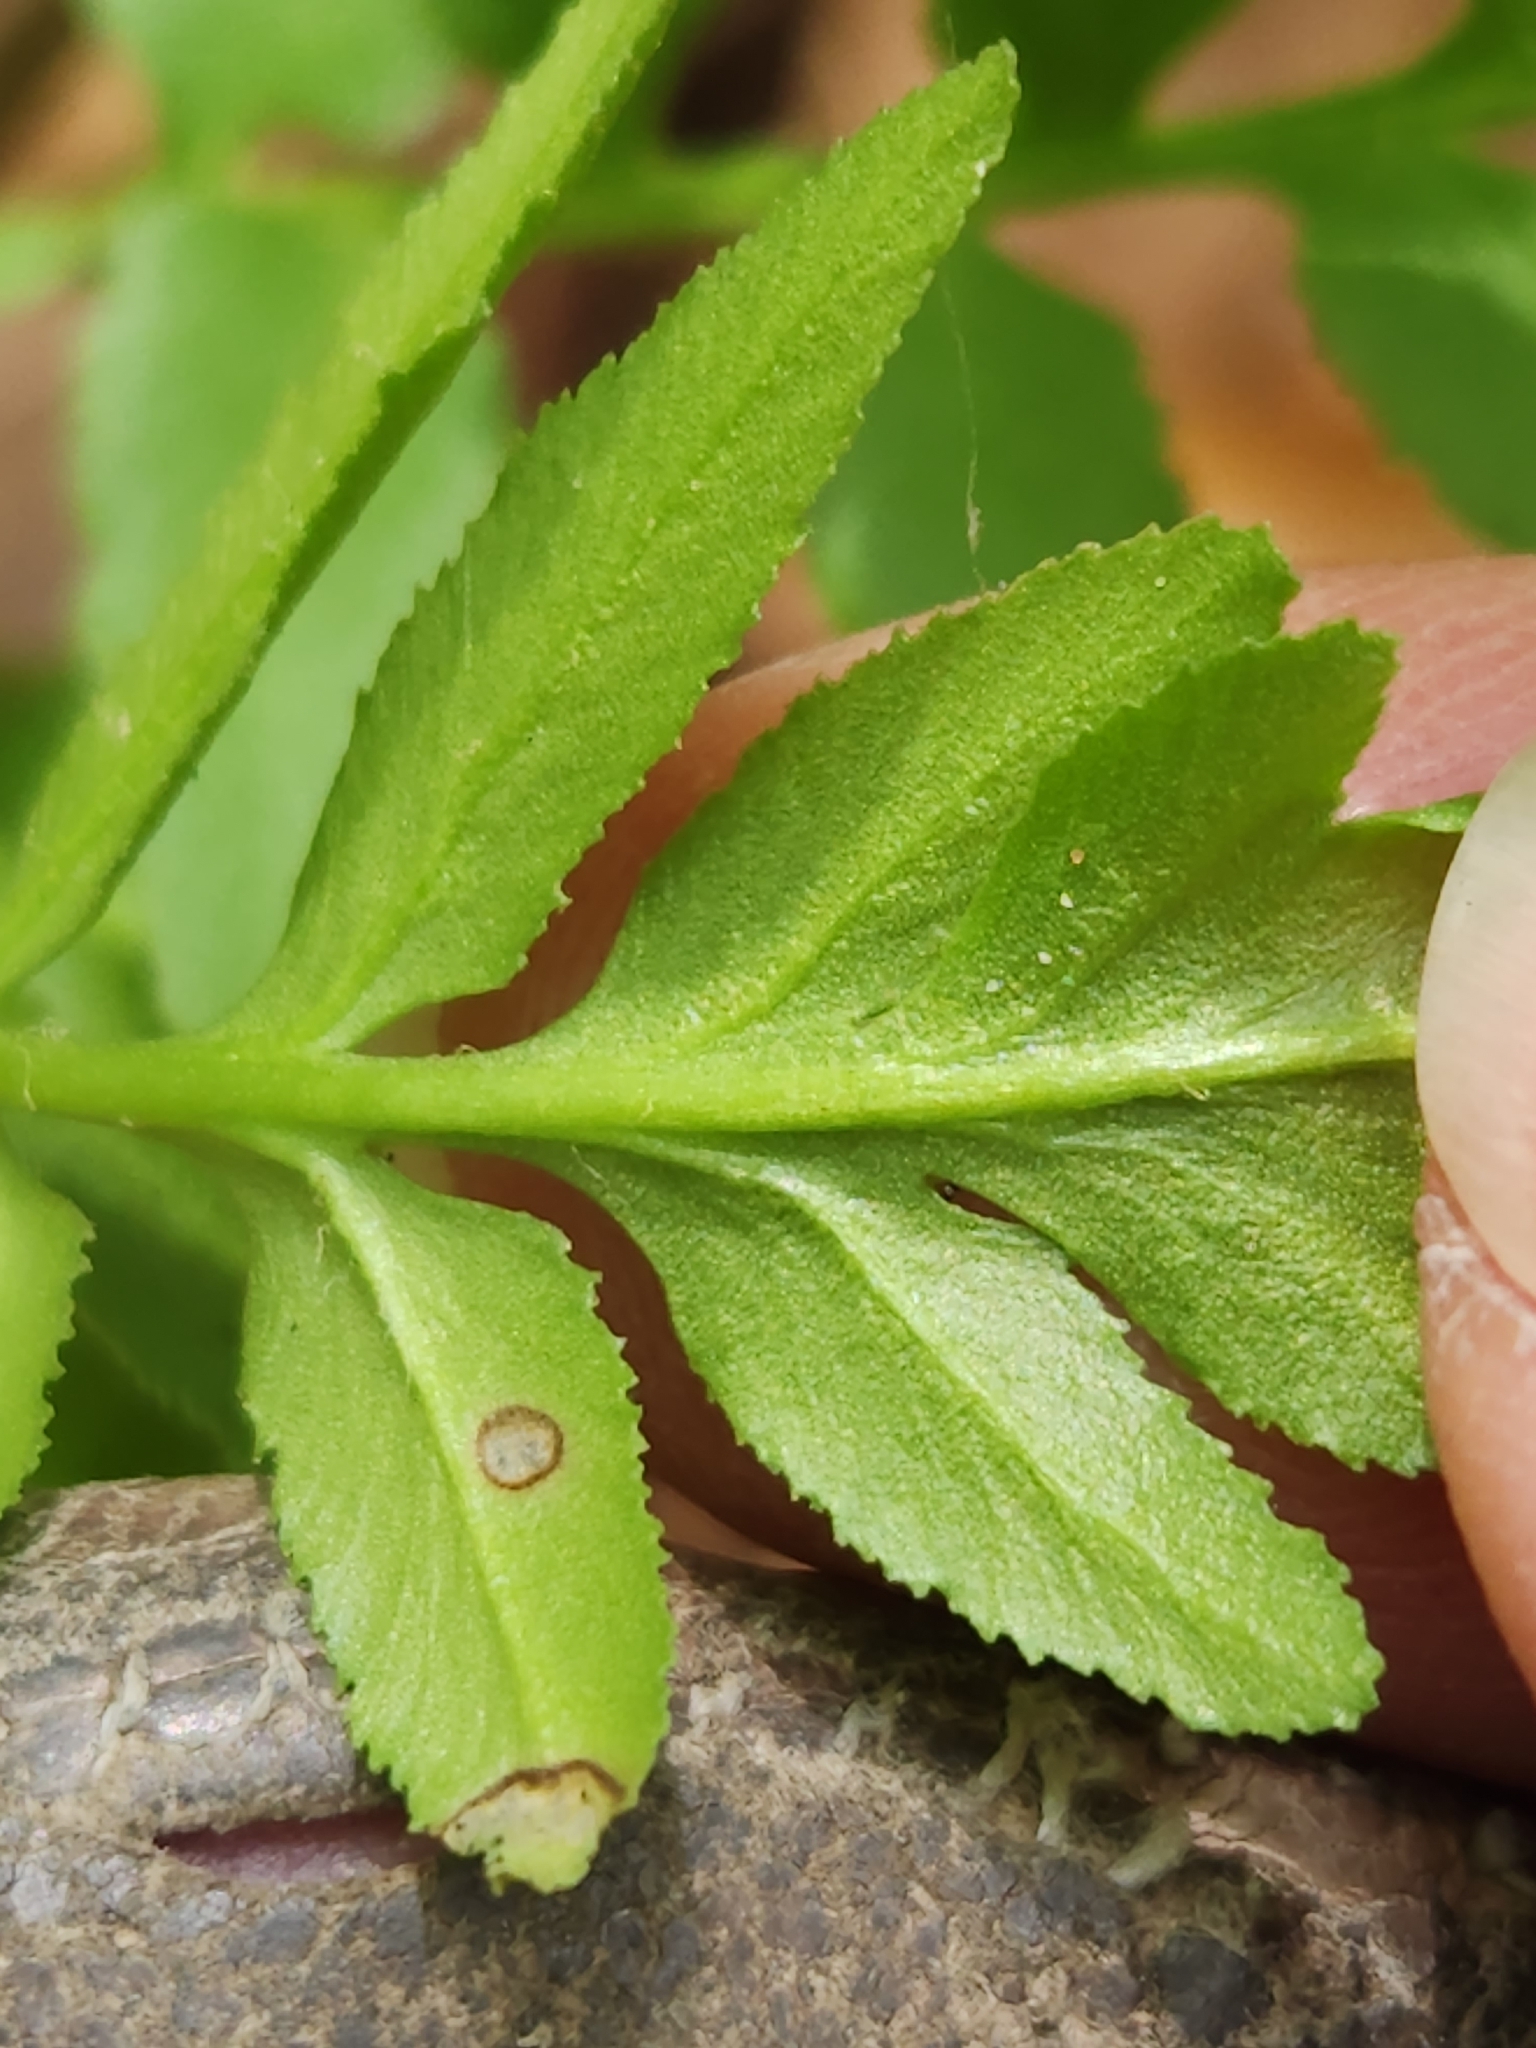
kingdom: Plantae
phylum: Tracheophyta
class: Polypodiopsida
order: Ophioglossales
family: Ophioglossaceae
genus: Sceptridium
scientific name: Sceptridium dissectum
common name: Cut-leaved grapefern
